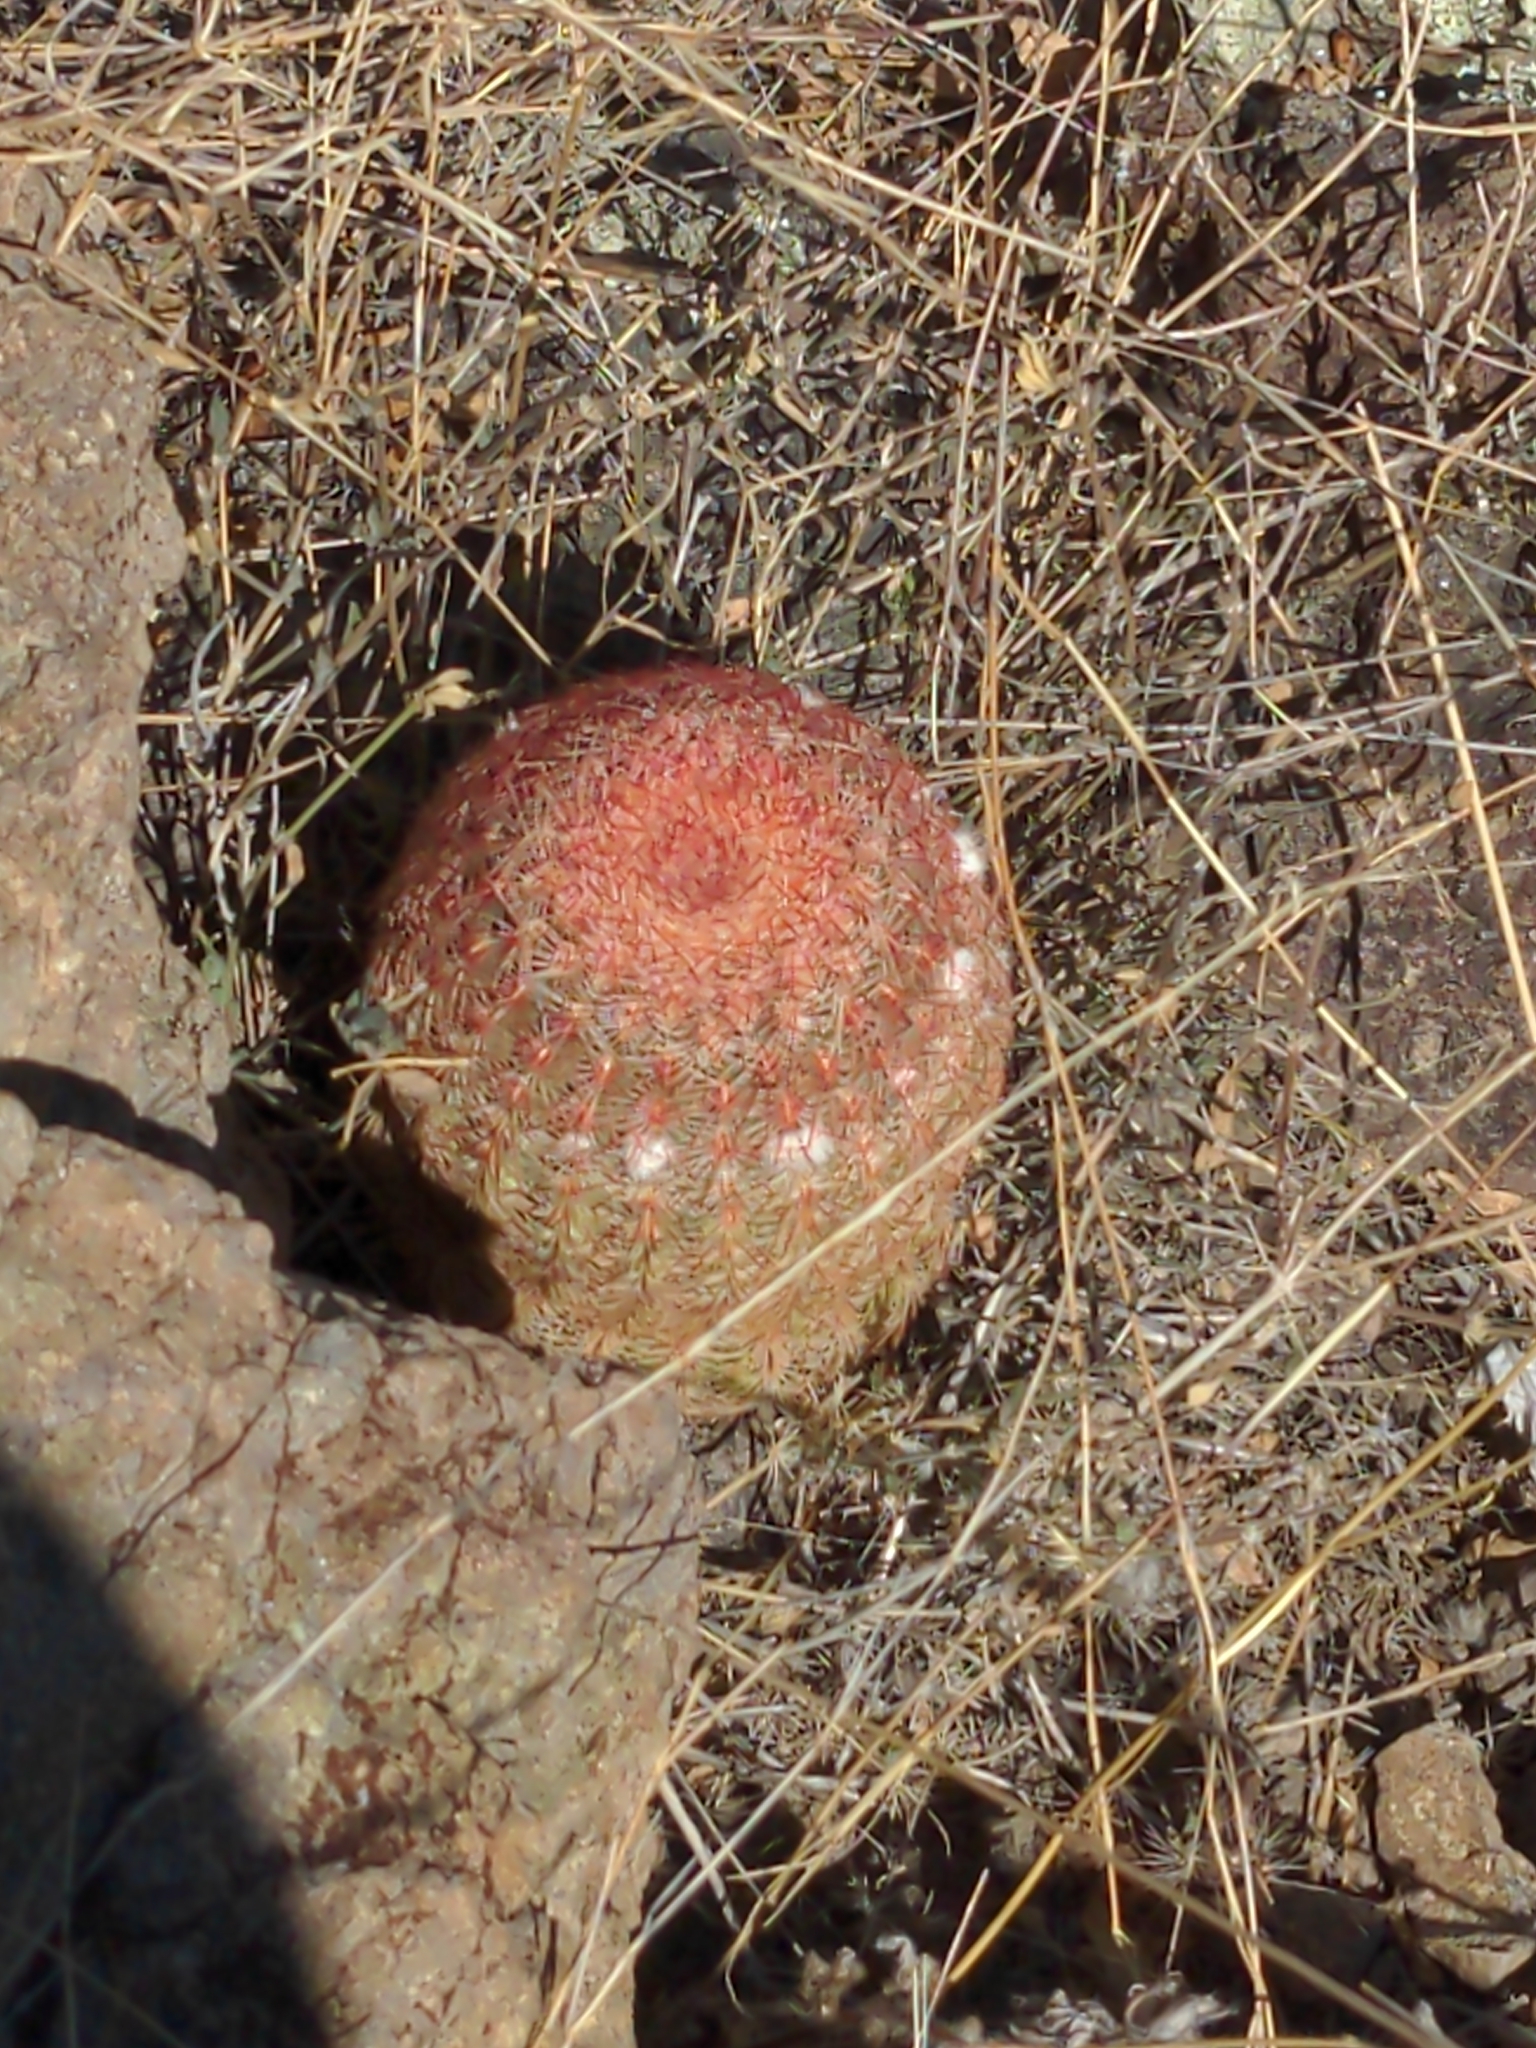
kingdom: Plantae
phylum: Tracheophyta
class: Magnoliopsida
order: Caryophyllales
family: Cactaceae
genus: Echinocereus
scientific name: Echinocereus rigidissimus
